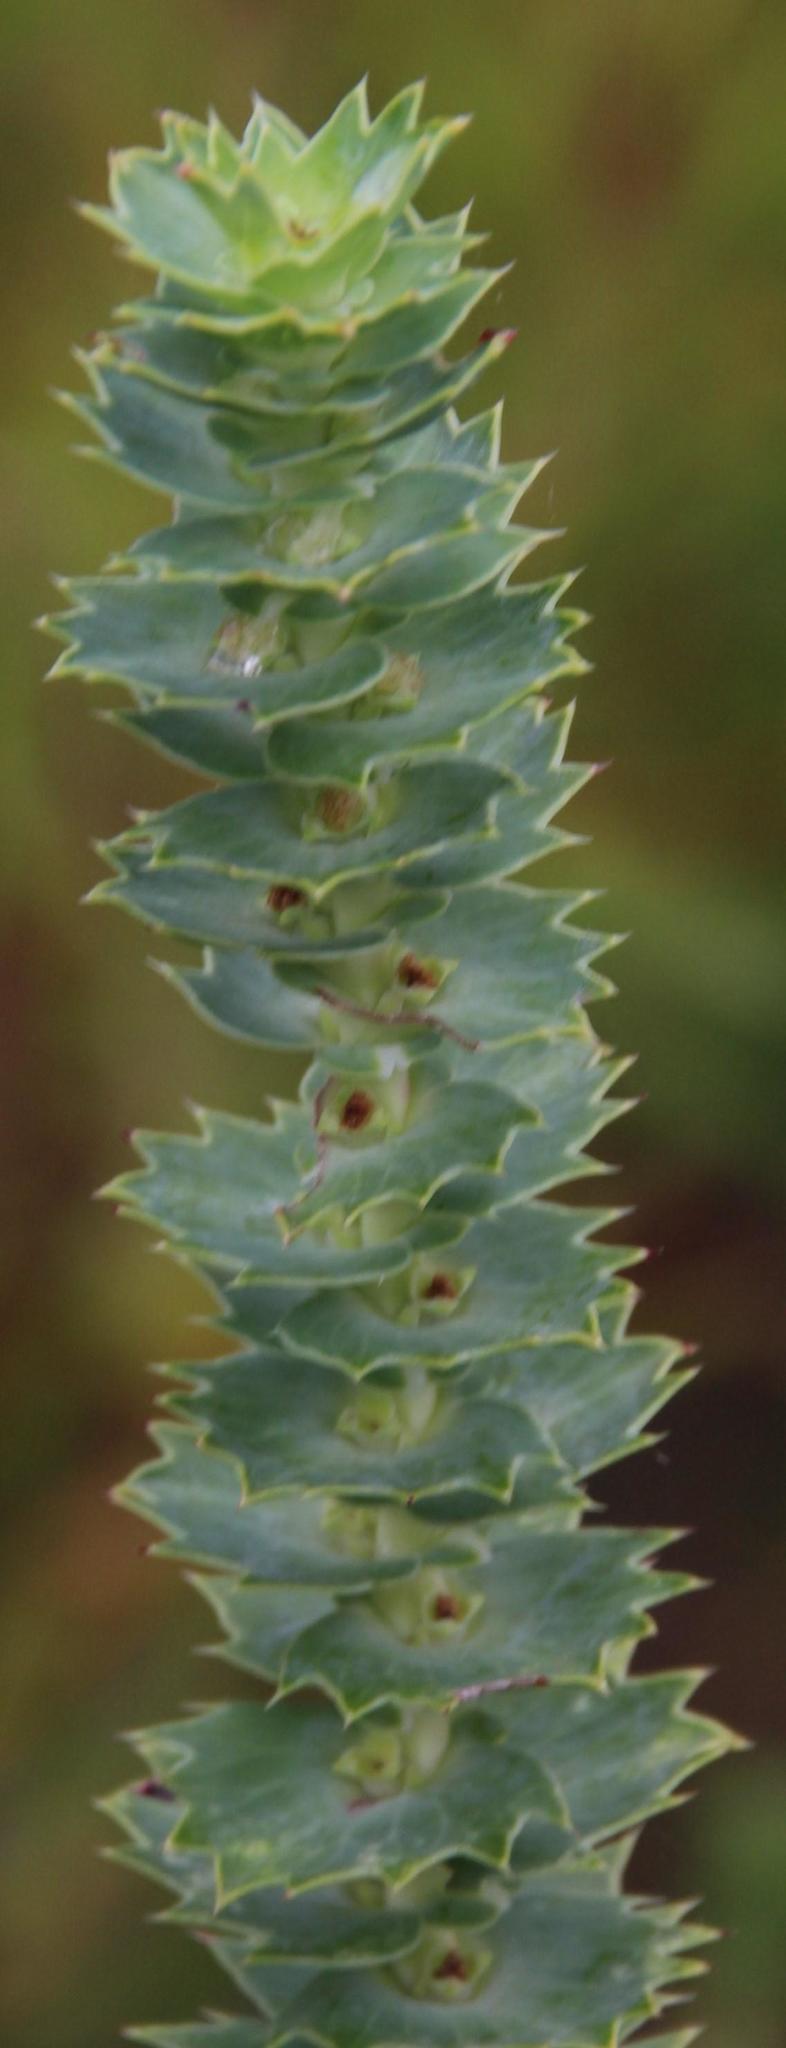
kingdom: Plantae
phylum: Tracheophyta
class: Magnoliopsida
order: Rosales
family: Rosaceae
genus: Cliffortia
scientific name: Cliffortia reniformis
